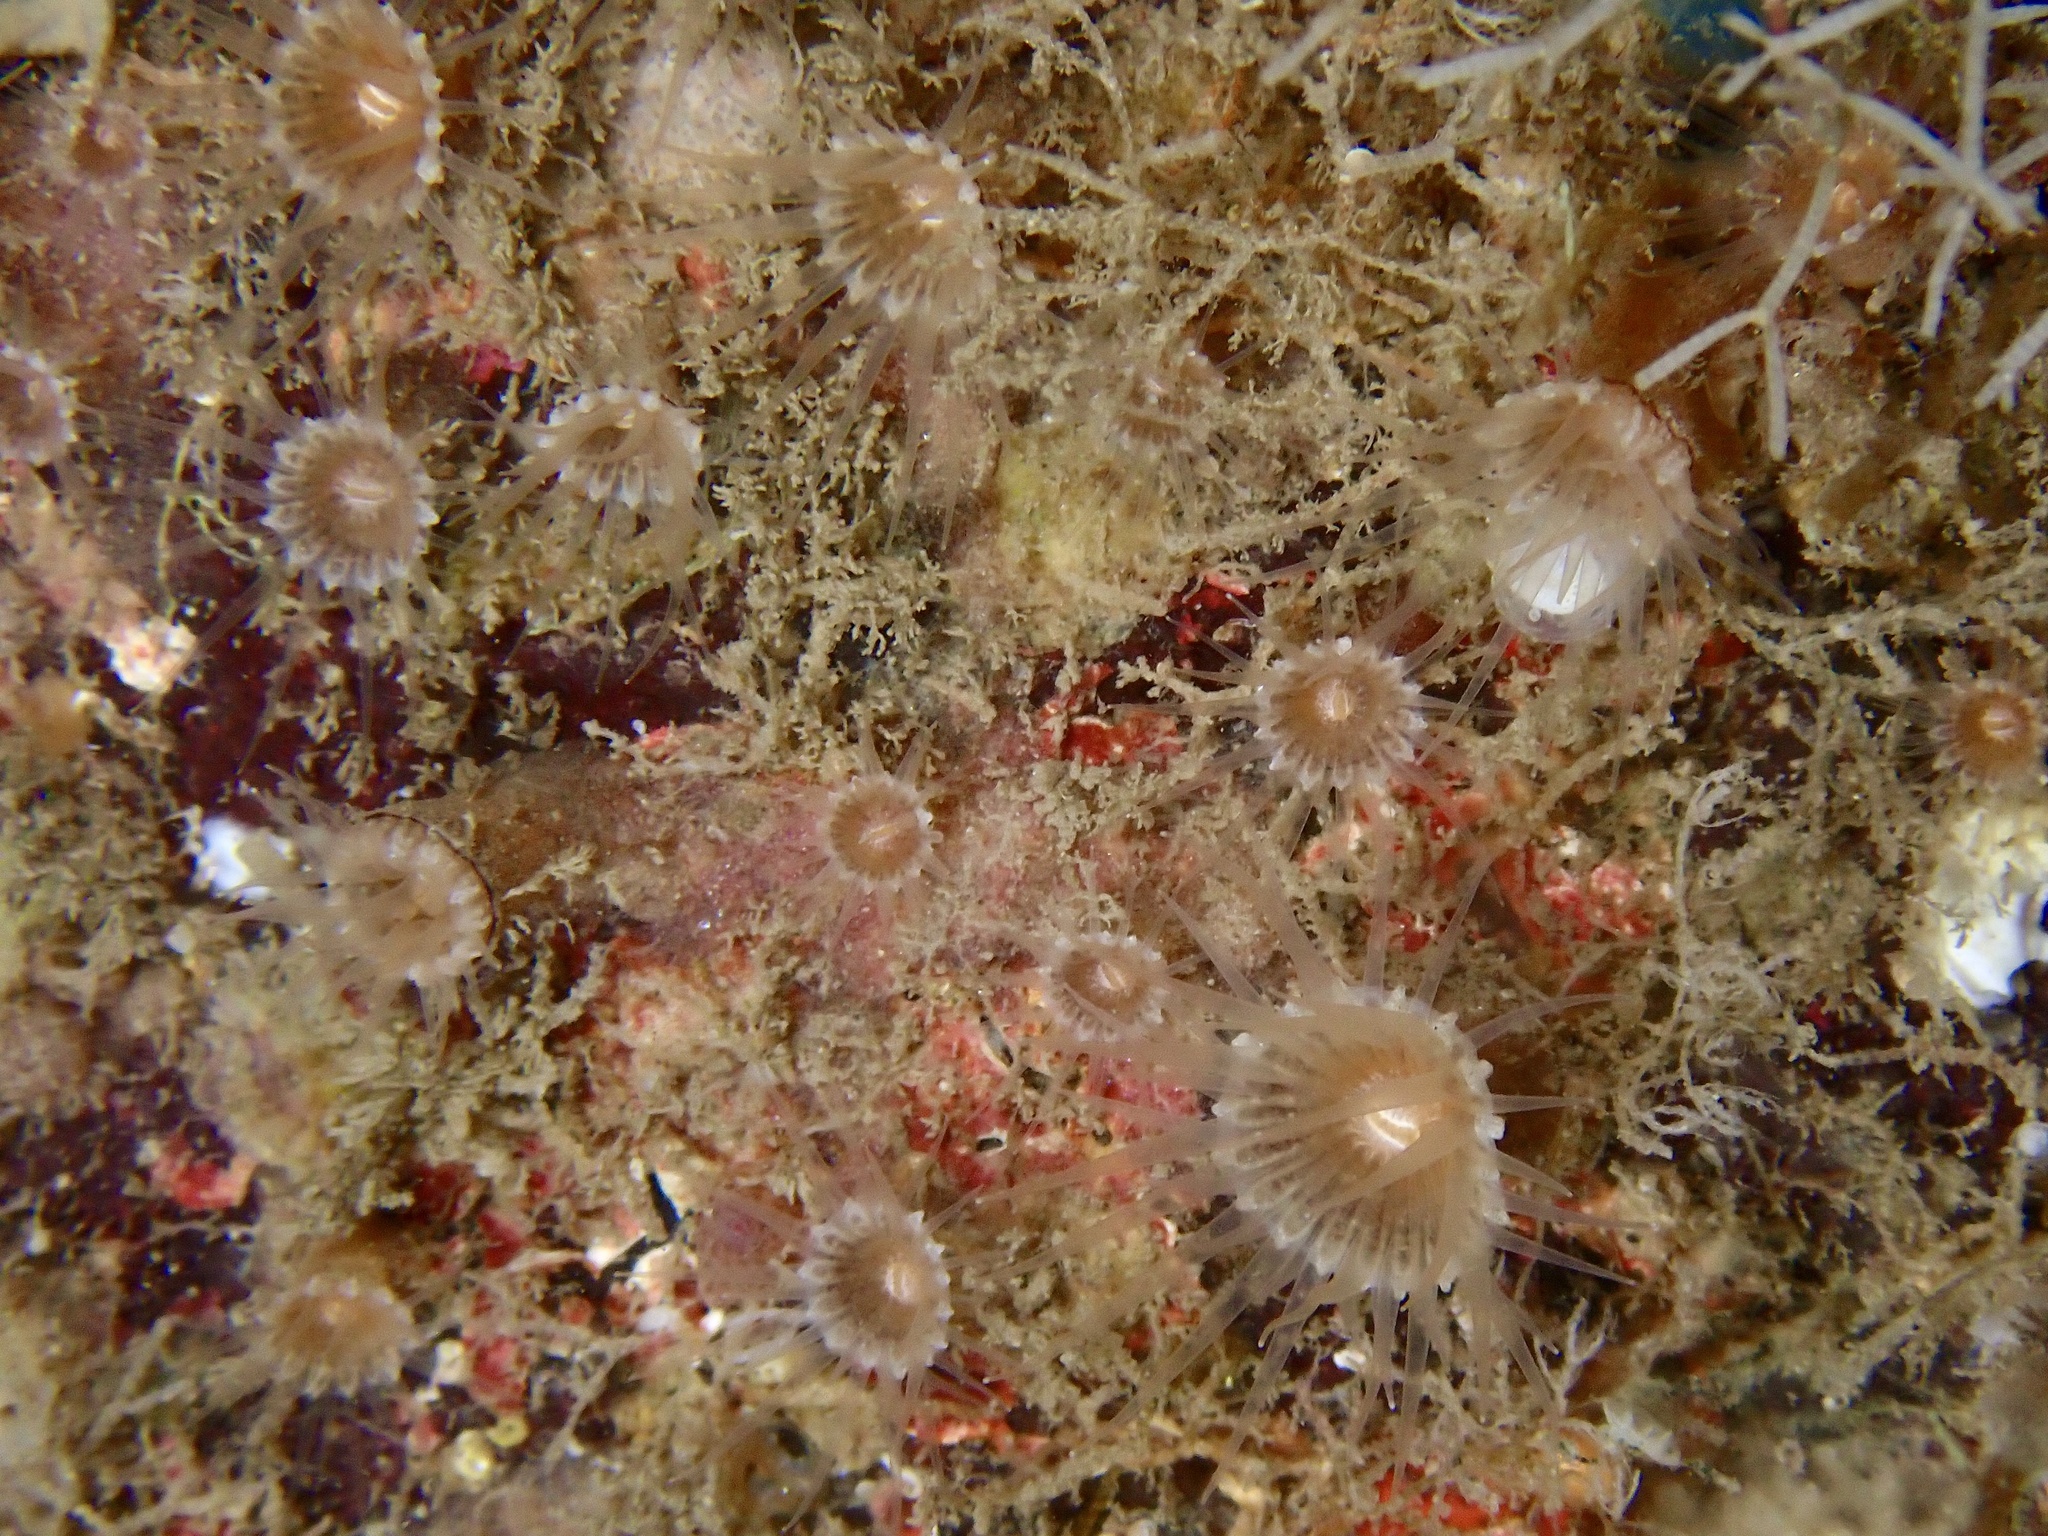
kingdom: Animalia
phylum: Cnidaria
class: Anthozoa
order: Zoantharia
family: Epizoanthidae
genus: Epizoanthus
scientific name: Epizoanthus couchii
